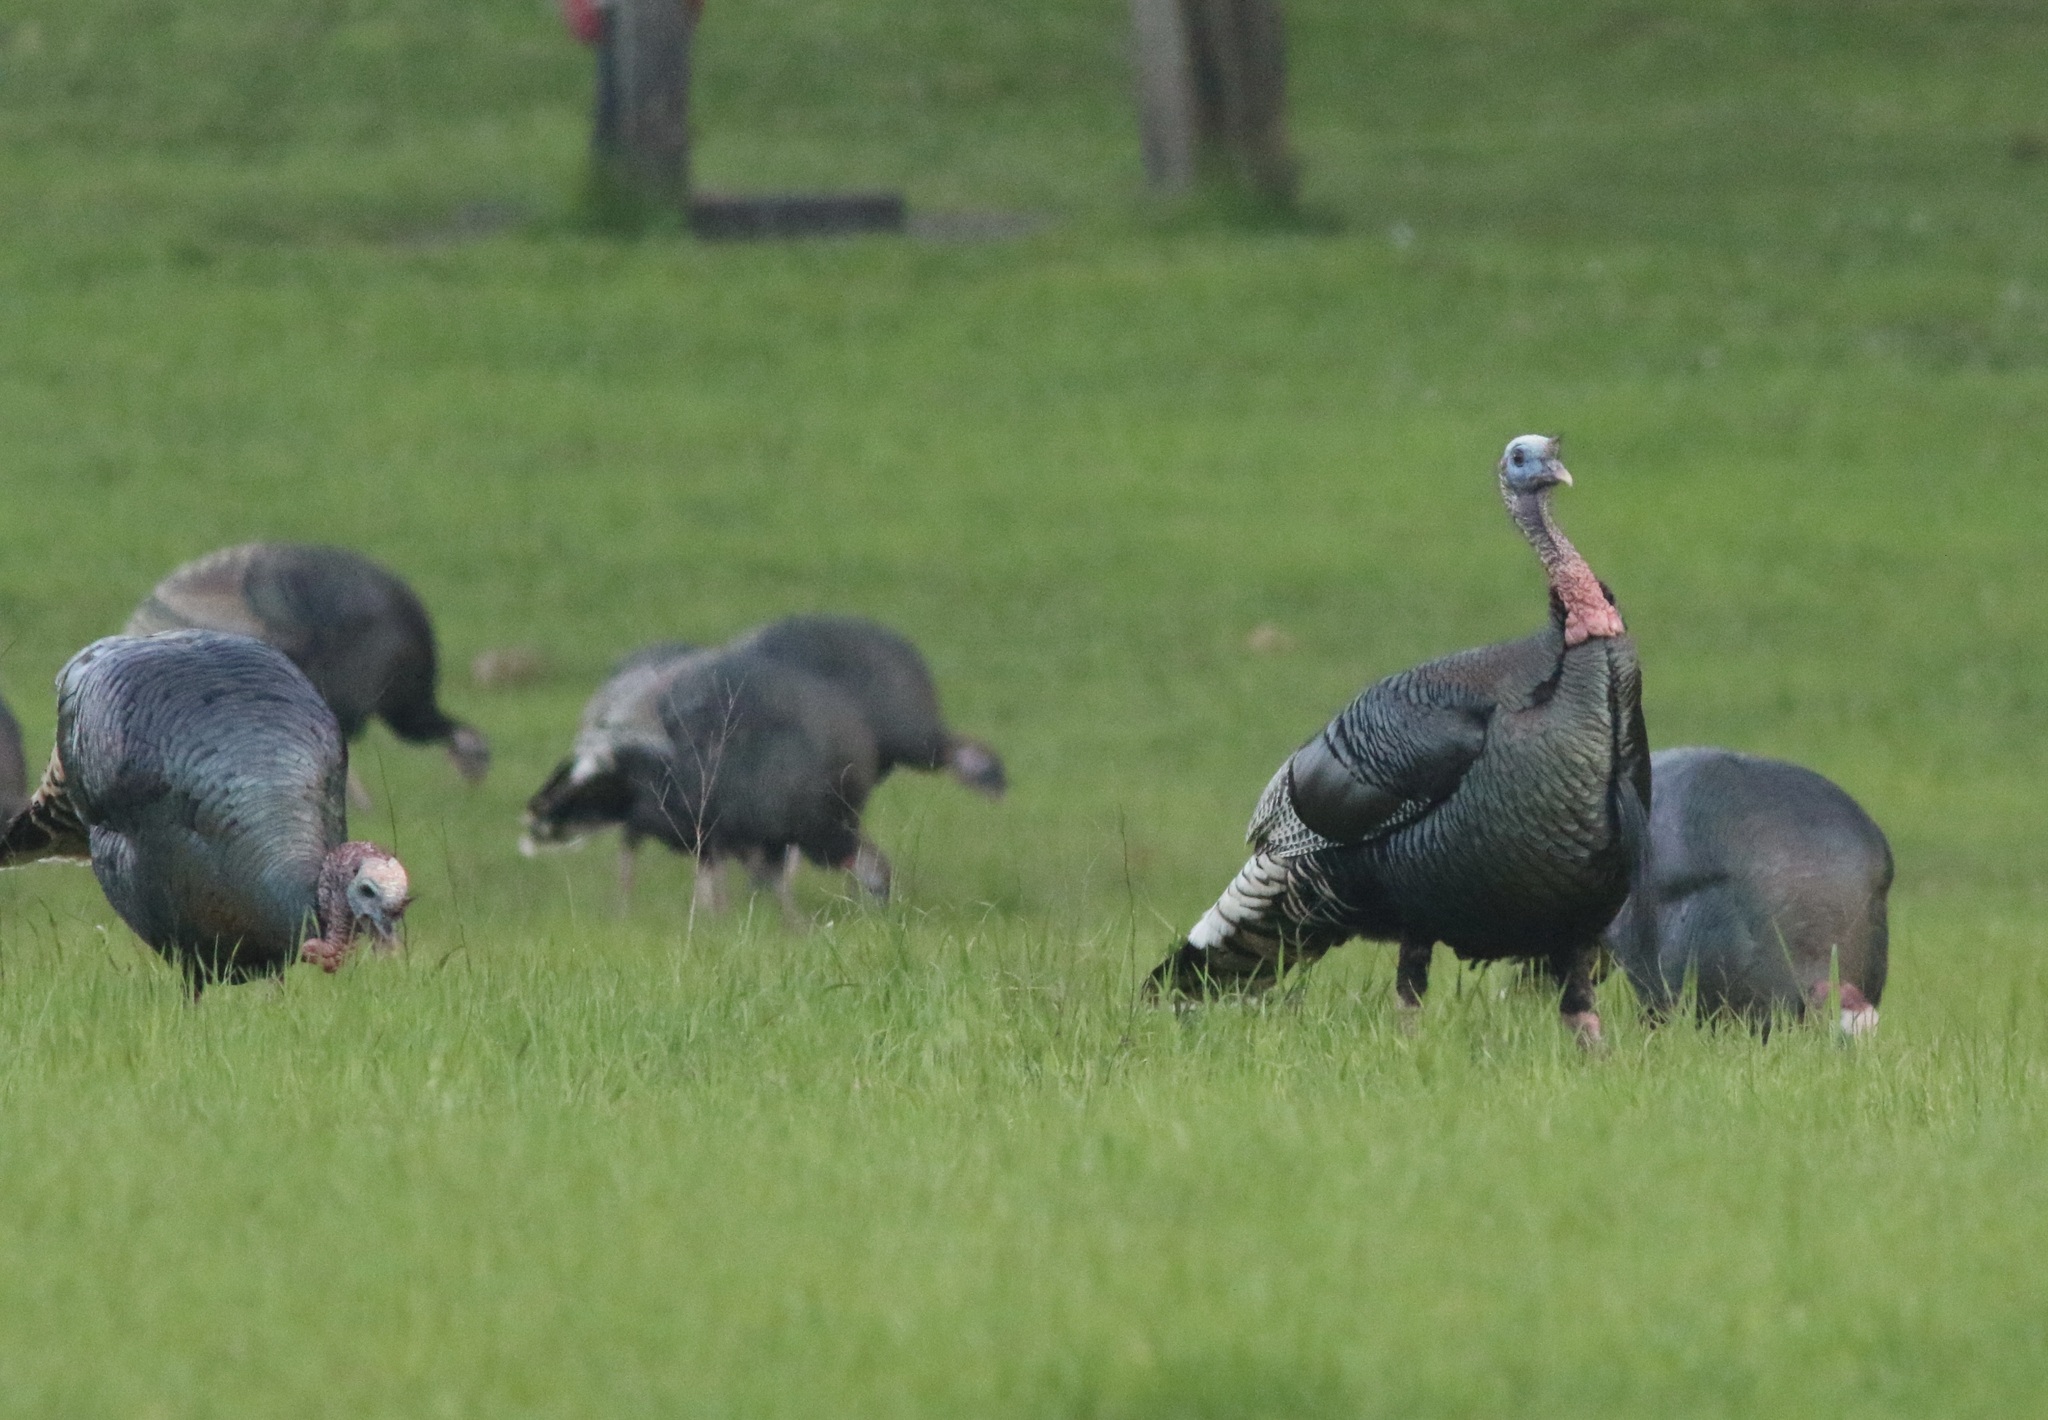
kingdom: Animalia
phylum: Chordata
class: Aves
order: Galliformes
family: Phasianidae
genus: Meleagris
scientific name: Meleagris gallopavo
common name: Wild turkey
